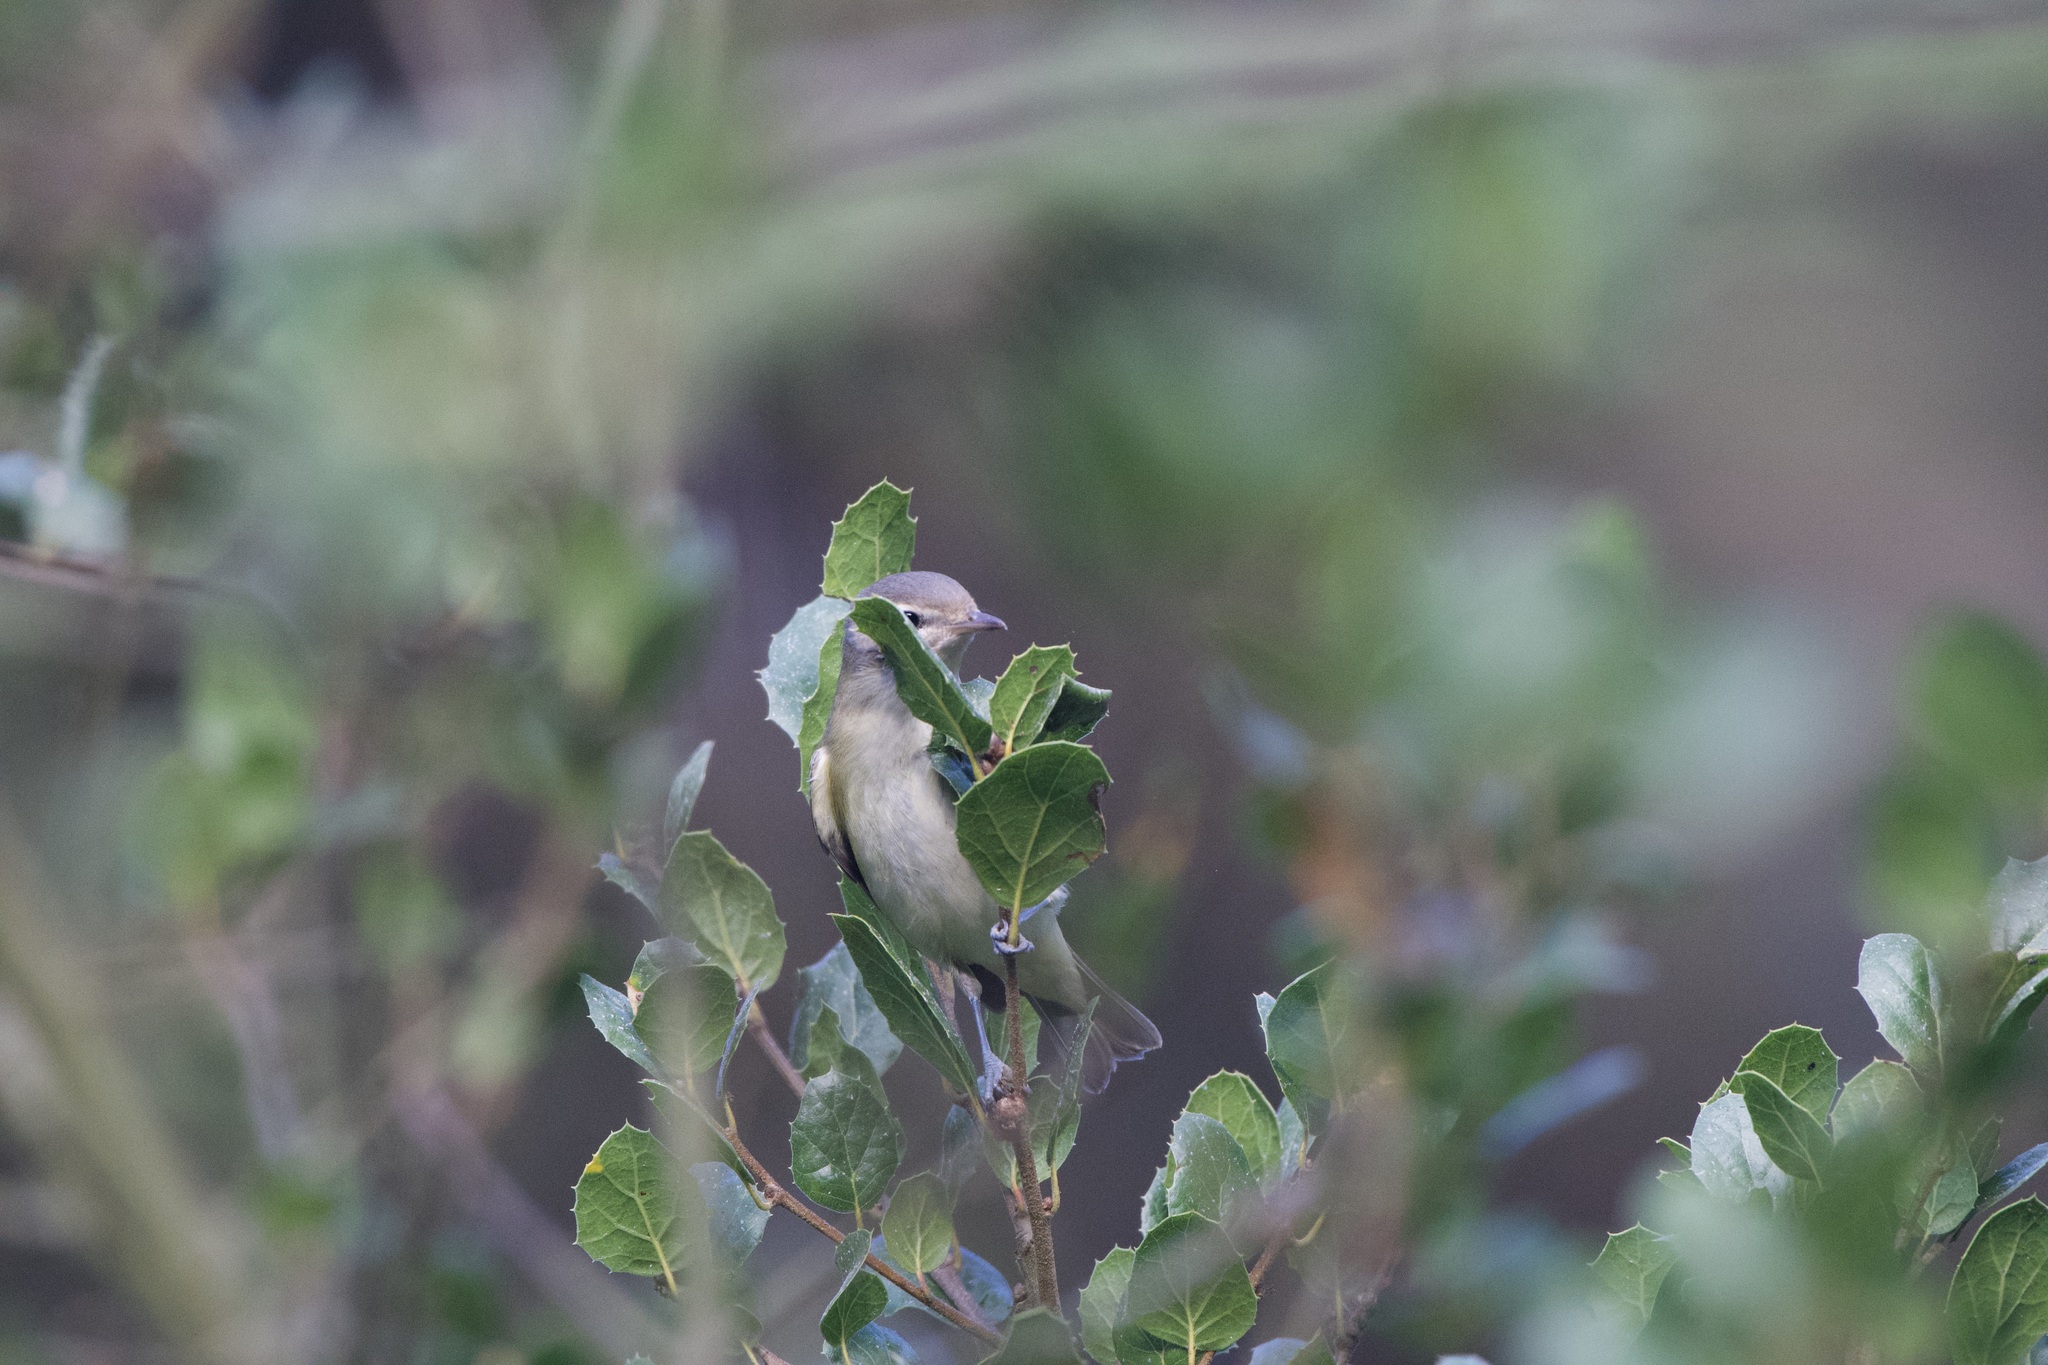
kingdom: Animalia
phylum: Chordata
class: Aves
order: Passeriformes
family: Vireonidae
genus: Vireo
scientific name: Vireo gilvus
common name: Warbling vireo
